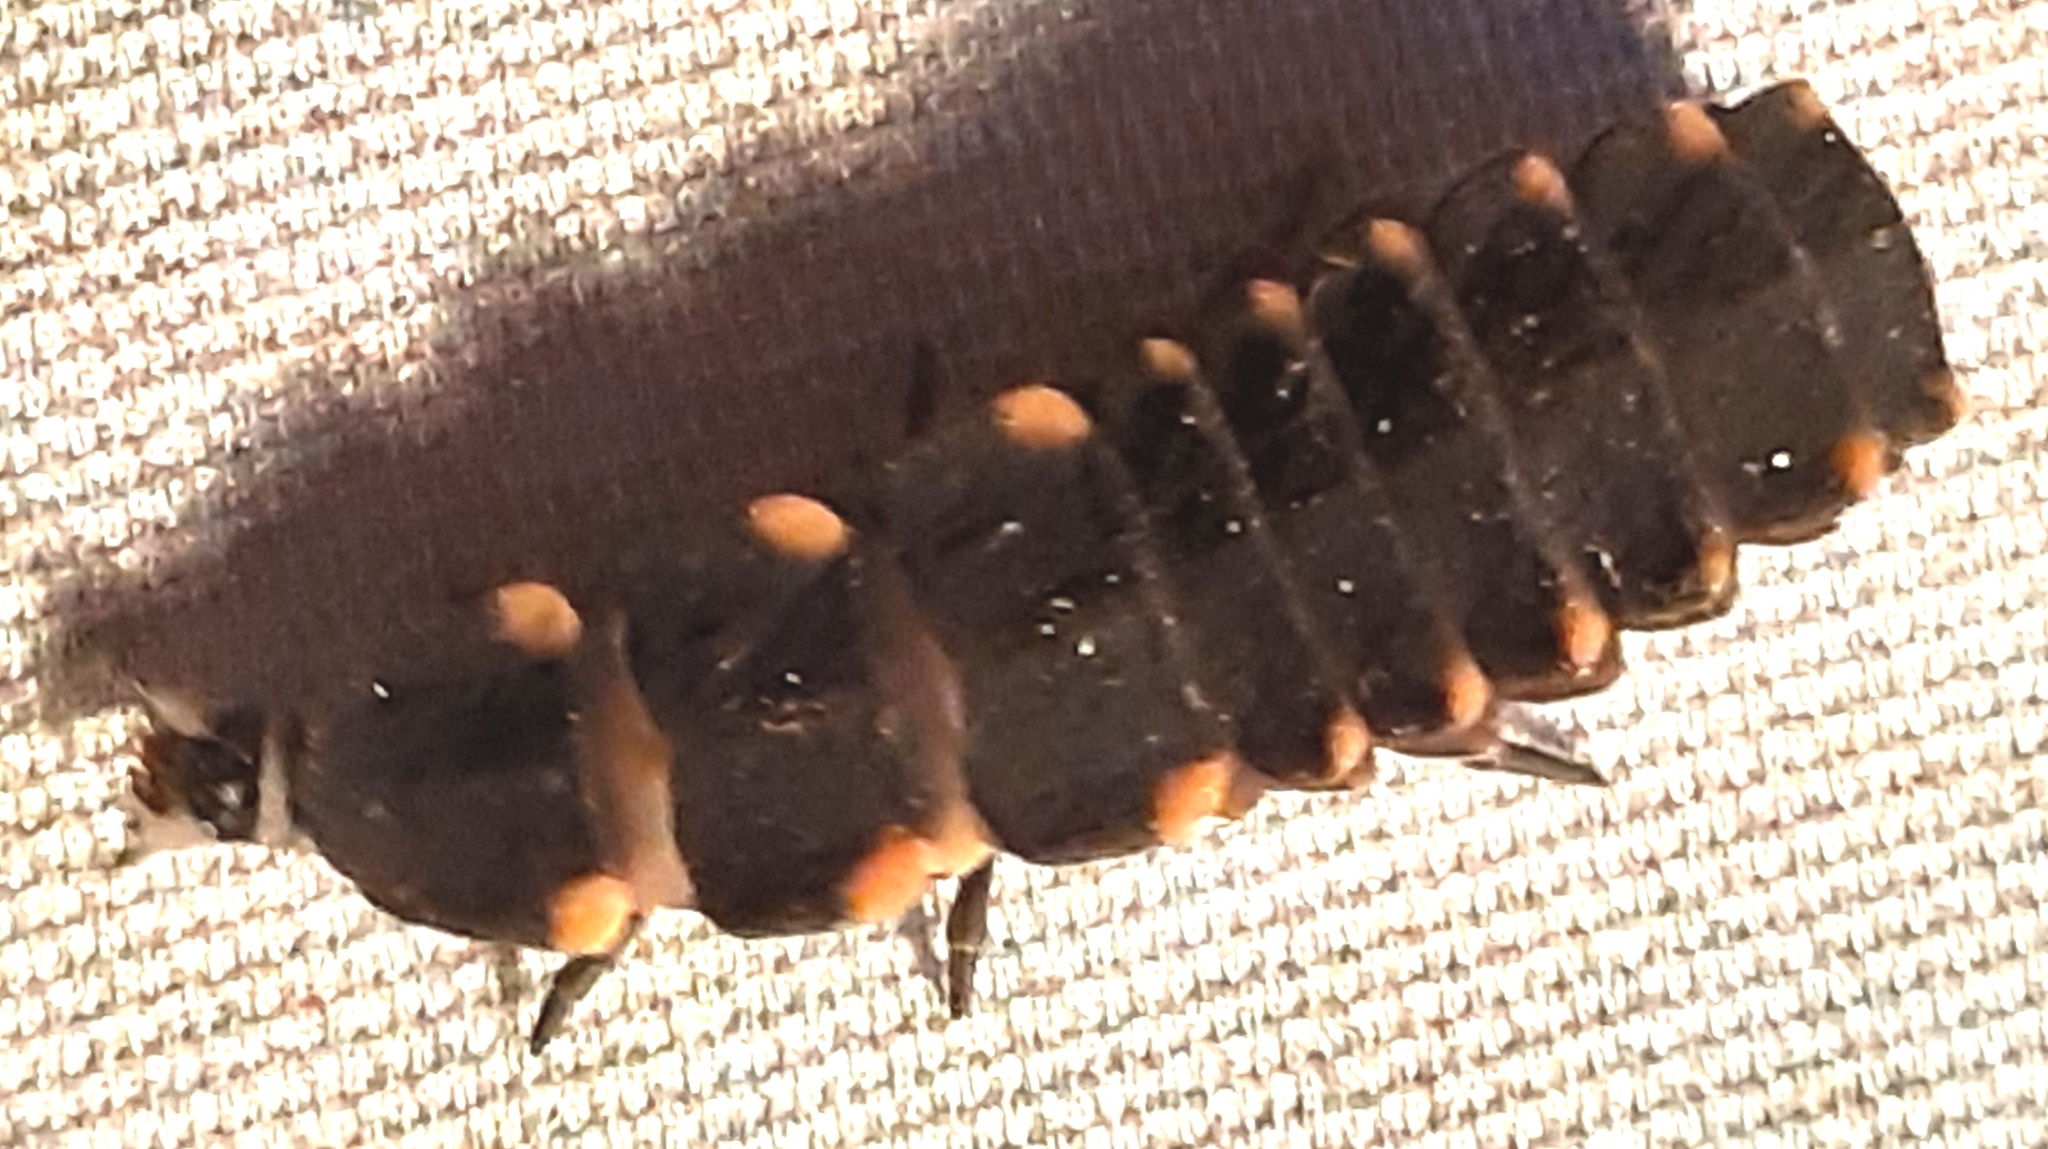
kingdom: Animalia
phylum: Arthropoda
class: Insecta
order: Coleoptera
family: Lampyridae
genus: Lampyris
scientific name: Lampyris noctiluca
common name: Glow-worm
